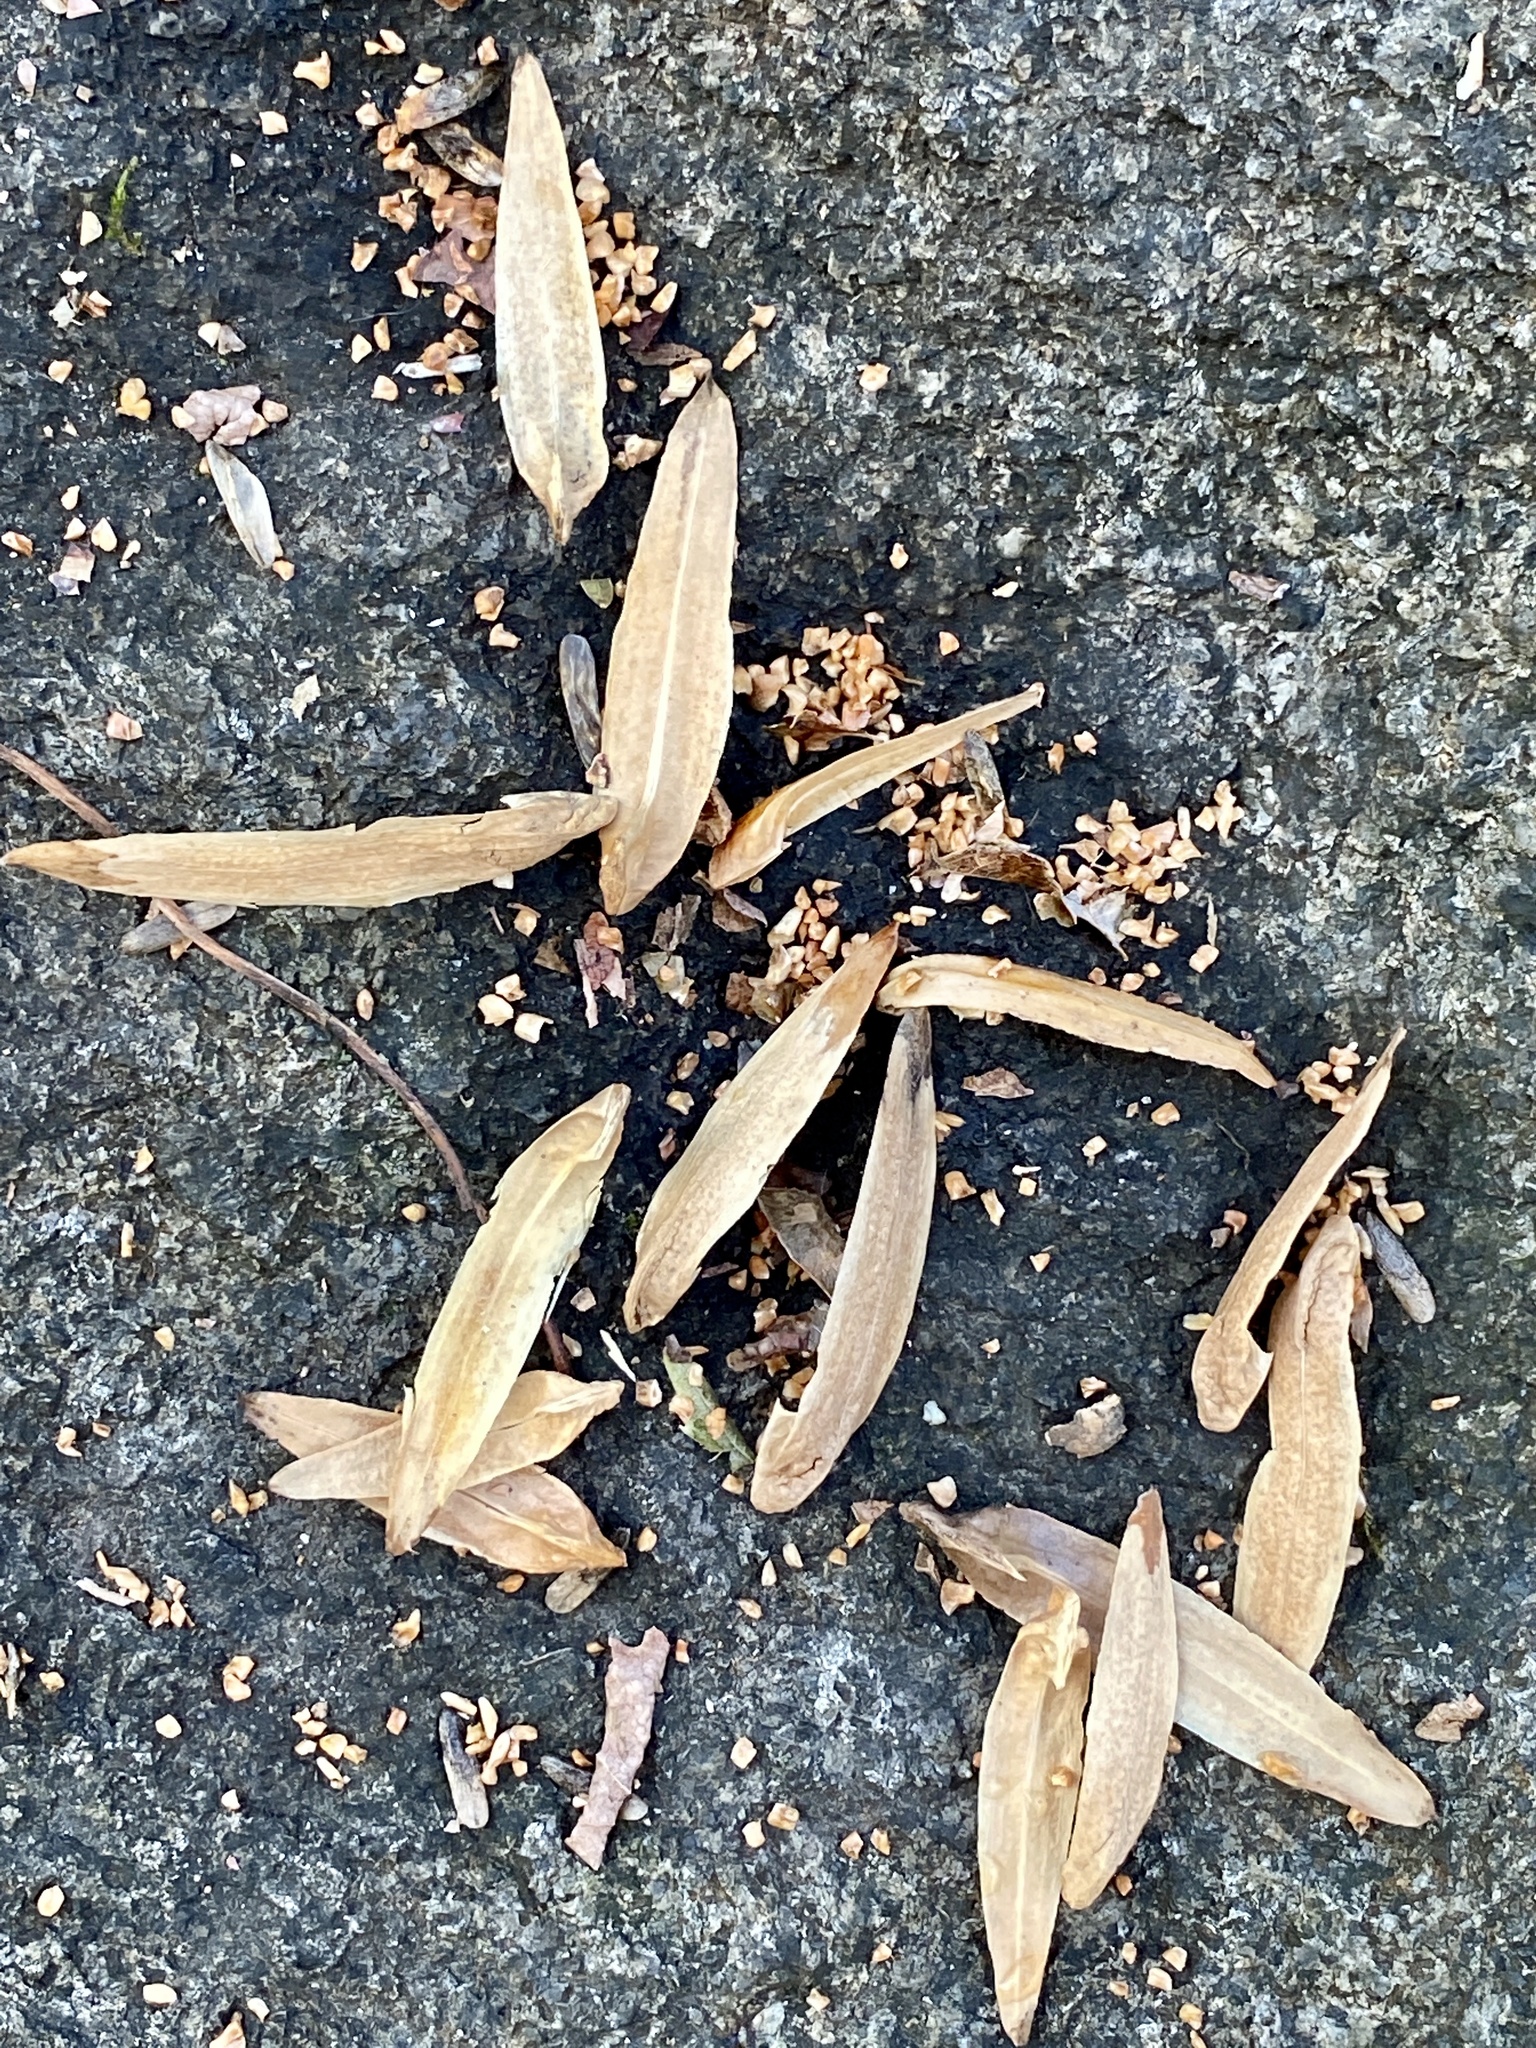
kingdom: Plantae
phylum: Tracheophyta
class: Magnoliopsida
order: Magnoliales
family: Magnoliaceae
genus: Liriodendron
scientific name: Liriodendron tulipifera
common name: Tulip tree
